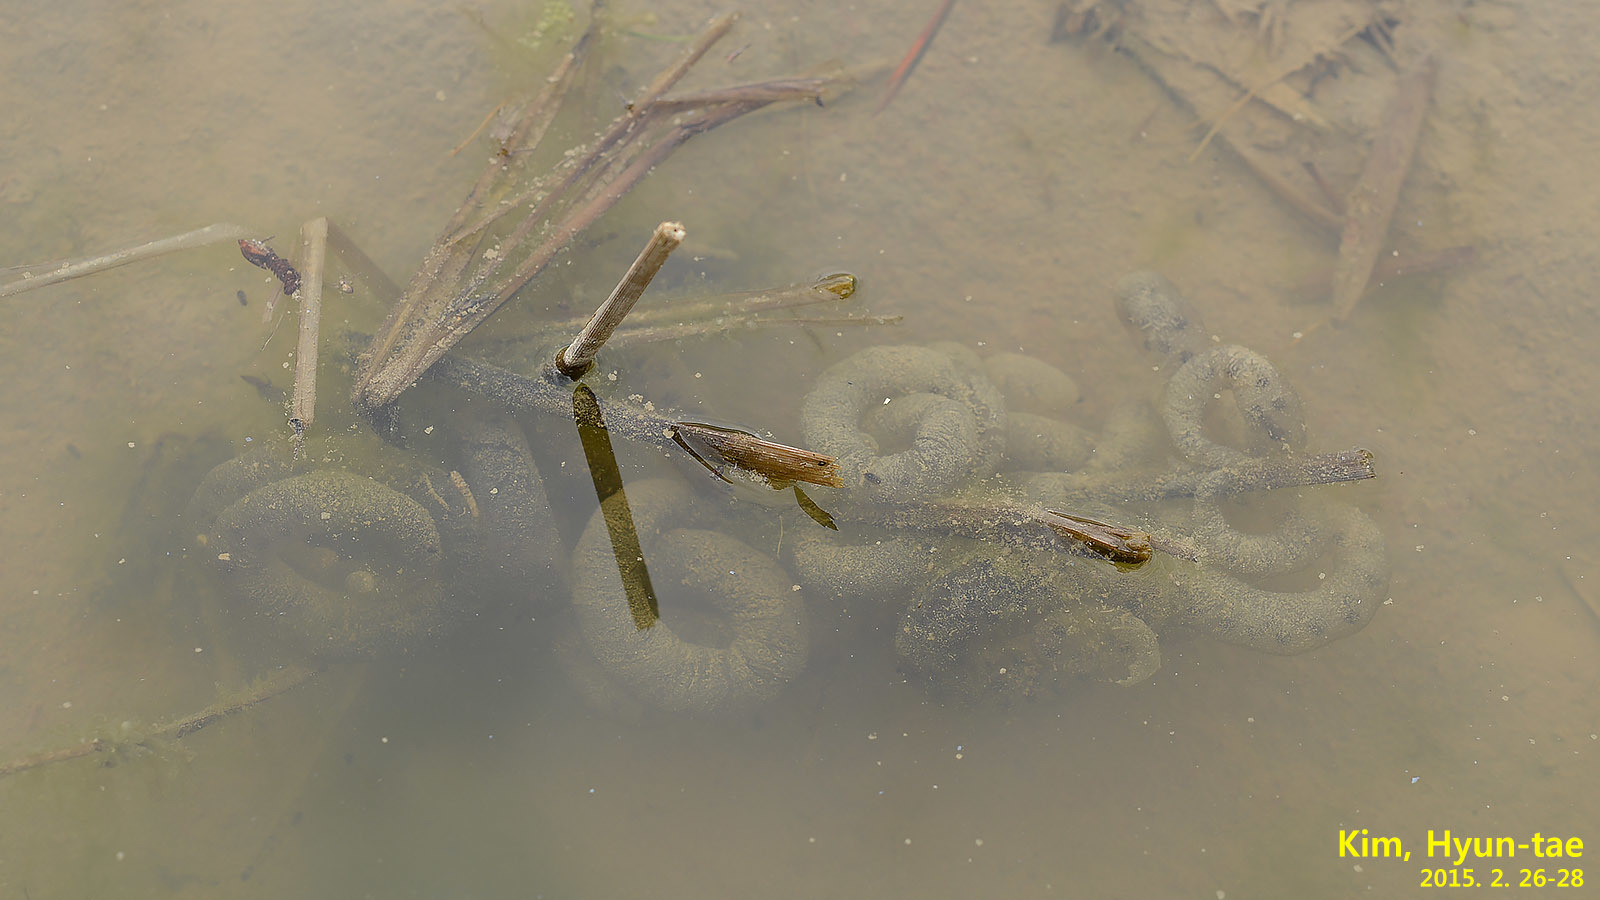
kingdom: Animalia
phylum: Chordata
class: Amphibia
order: Caudata
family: Hynobiidae
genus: Hynobius
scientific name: Hynobius quelpaertensis
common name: Cheju salamander
